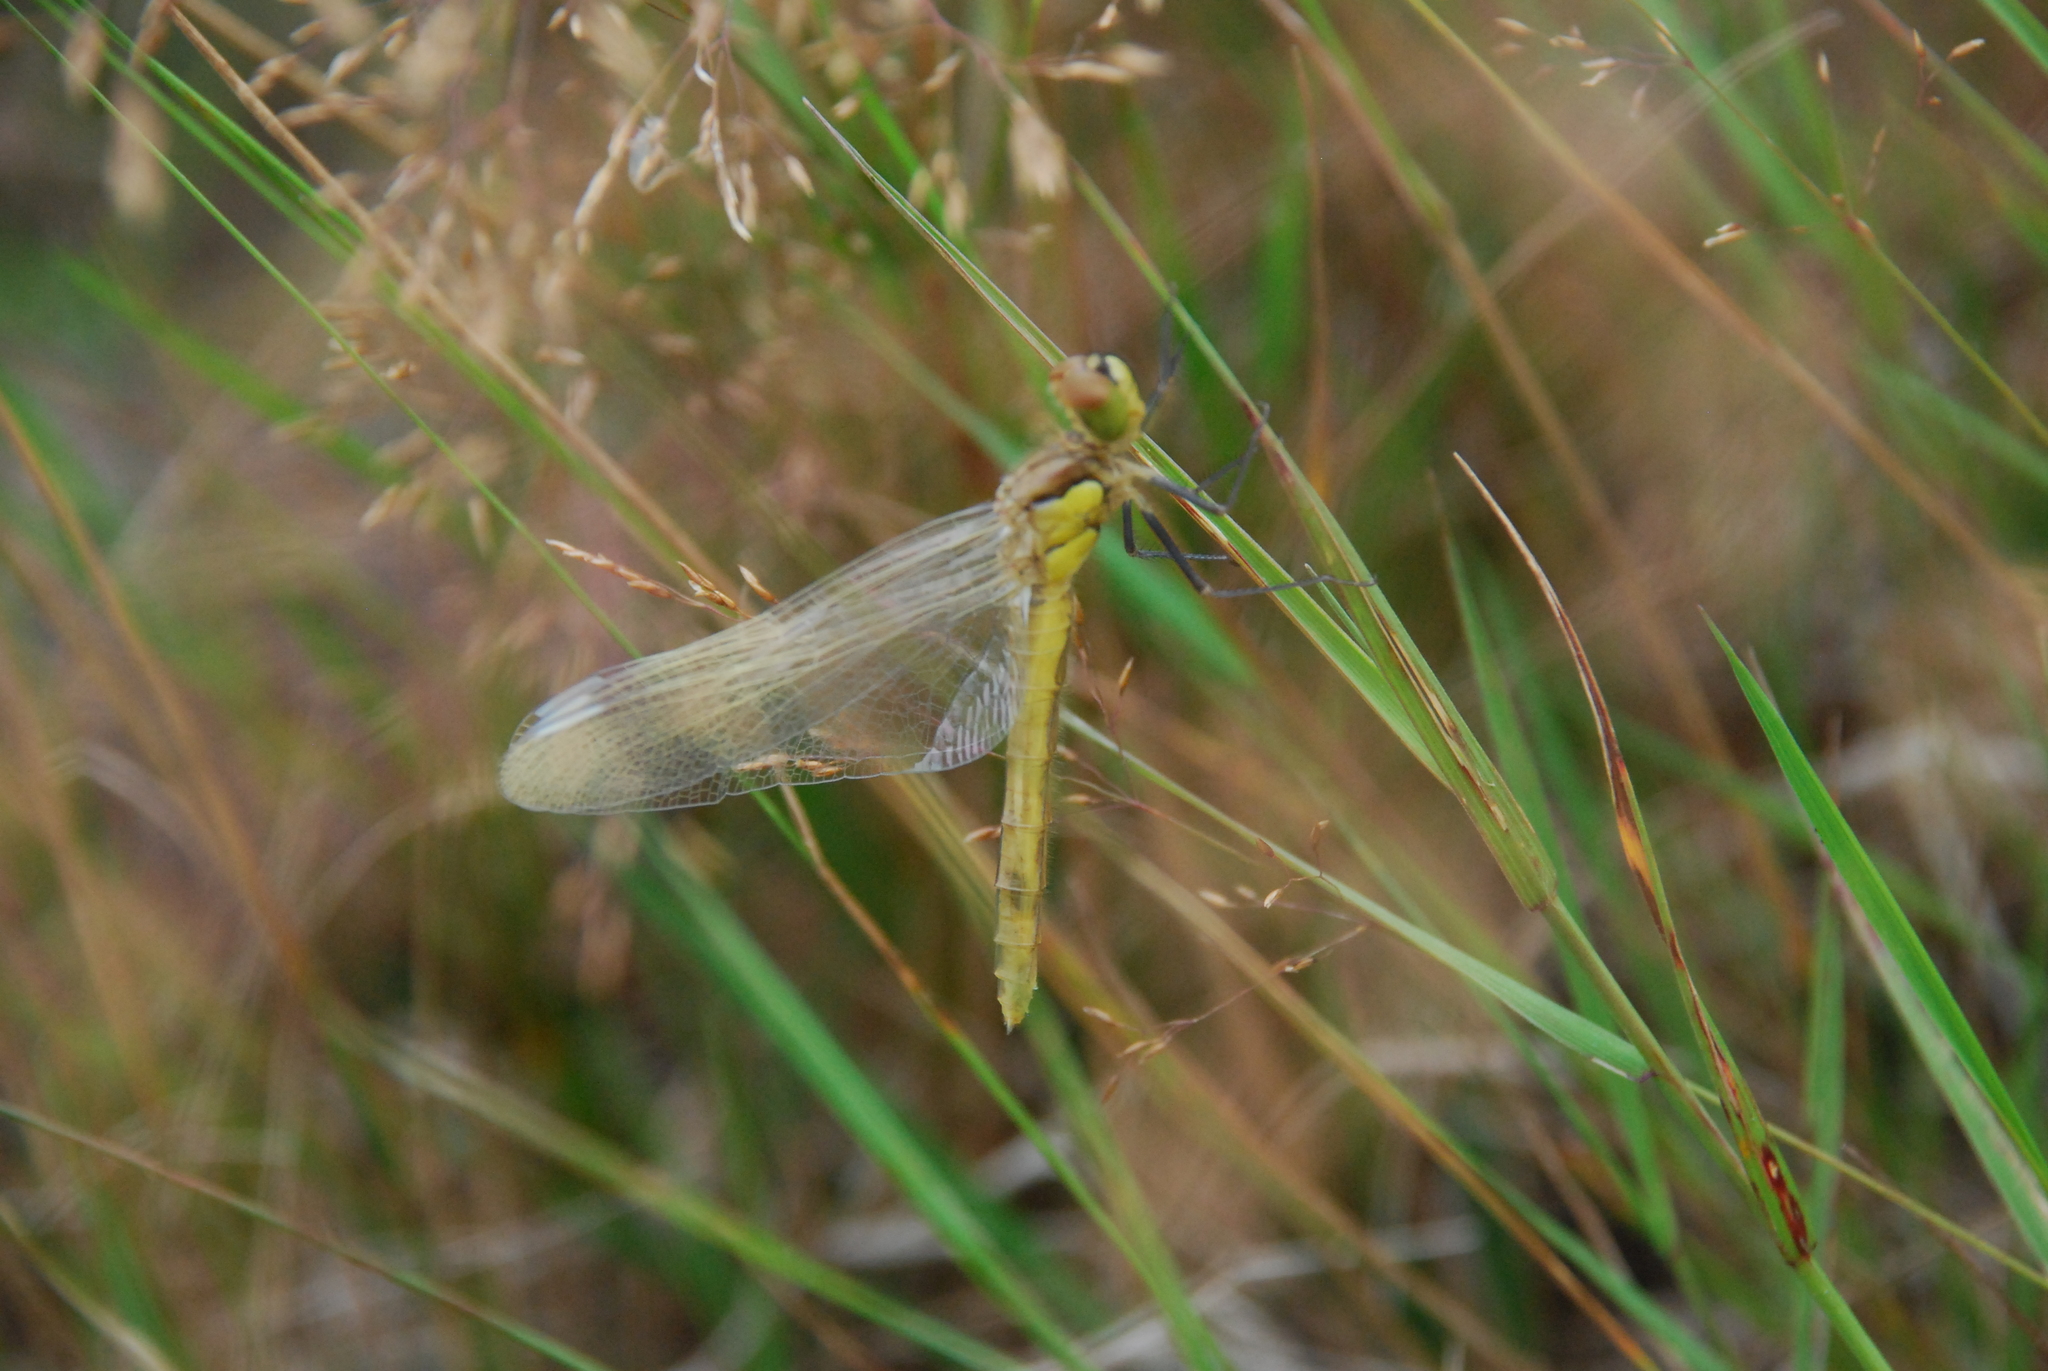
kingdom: Animalia
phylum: Arthropoda
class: Insecta
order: Odonata
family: Libellulidae
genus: Sympetrum
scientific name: Sympetrum vulgatum
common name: Vagrant darter
